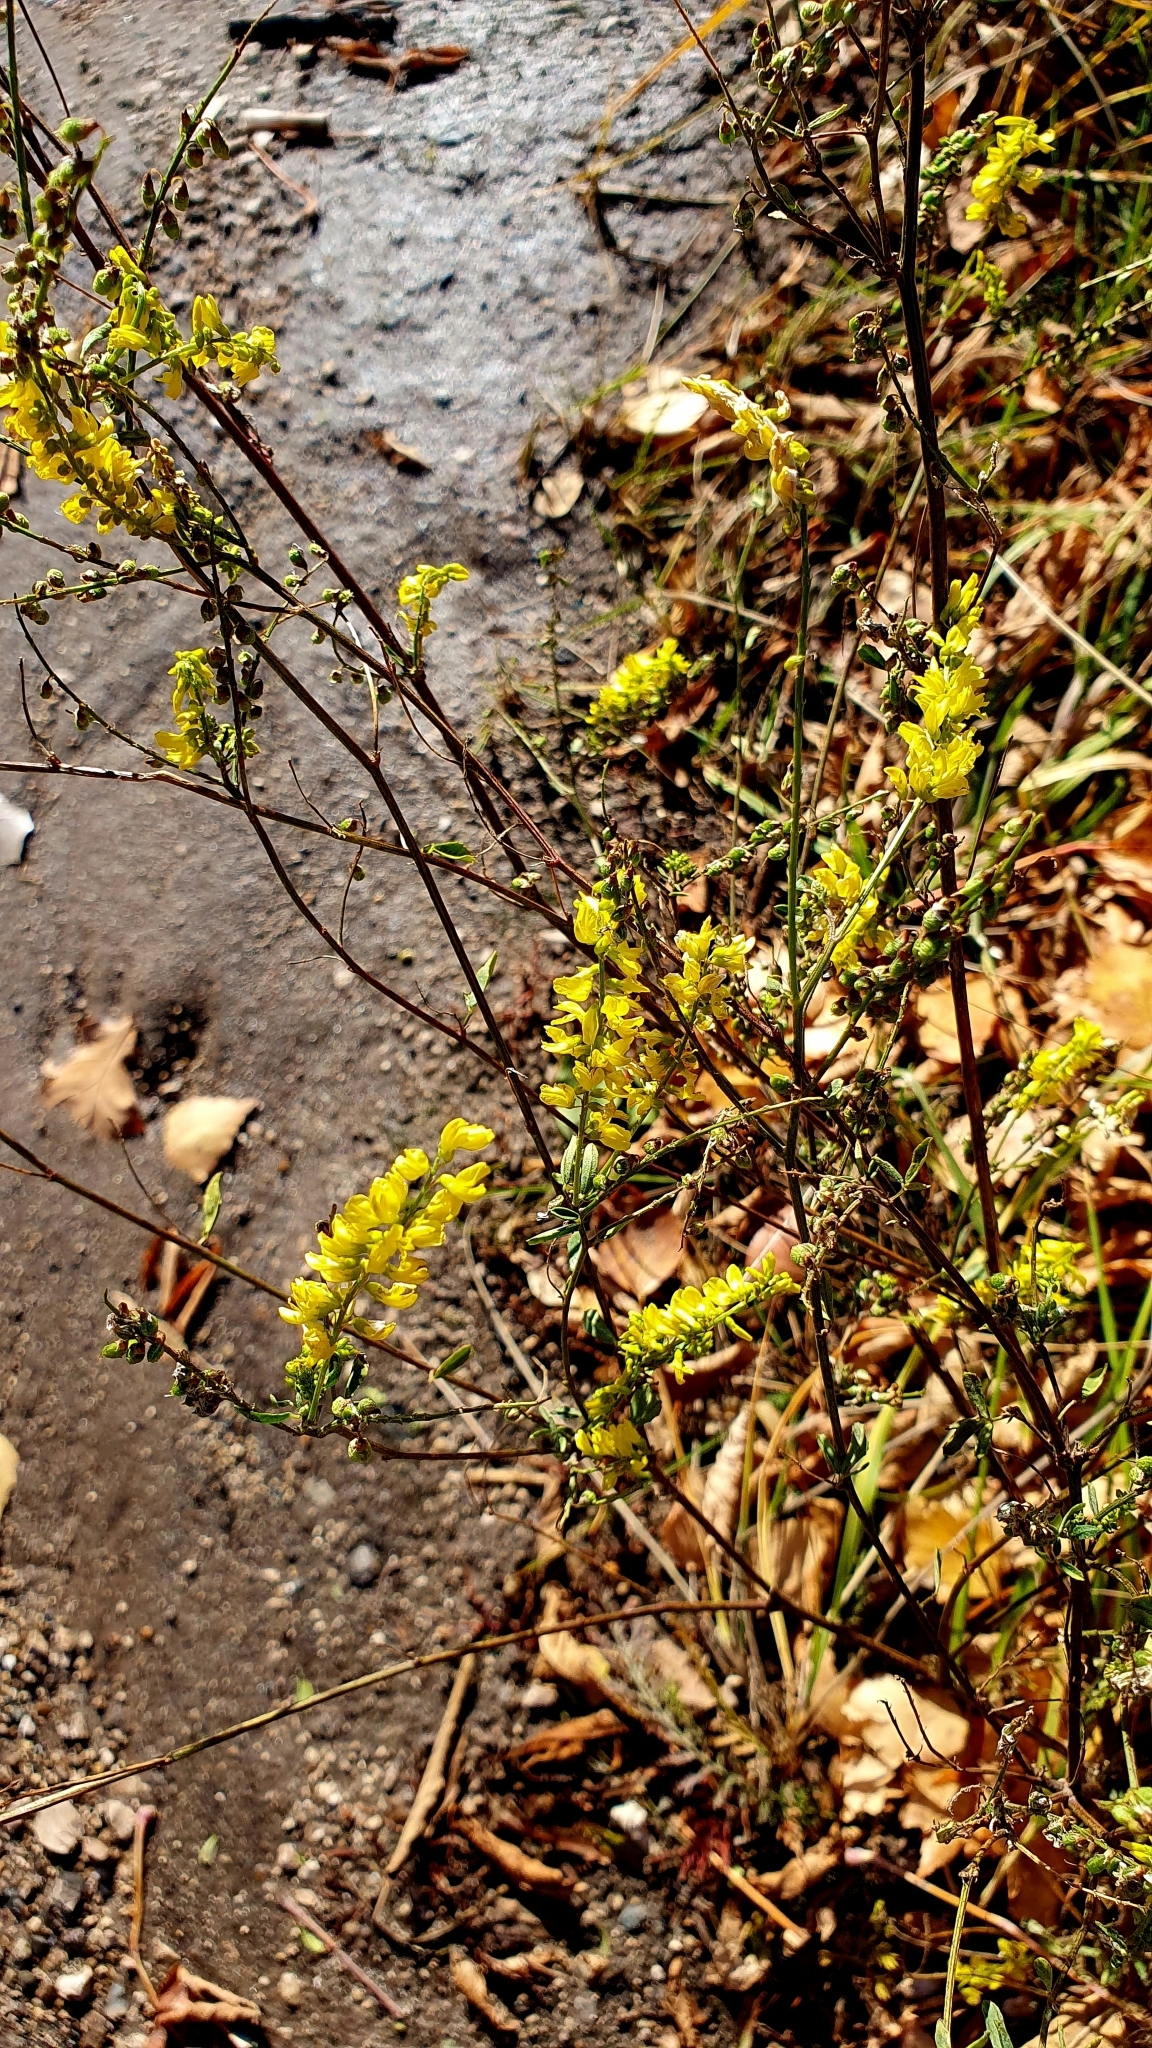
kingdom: Plantae
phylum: Tracheophyta
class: Magnoliopsida
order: Fabales
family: Fabaceae
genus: Melilotus
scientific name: Melilotus officinalis
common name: Sweetclover
